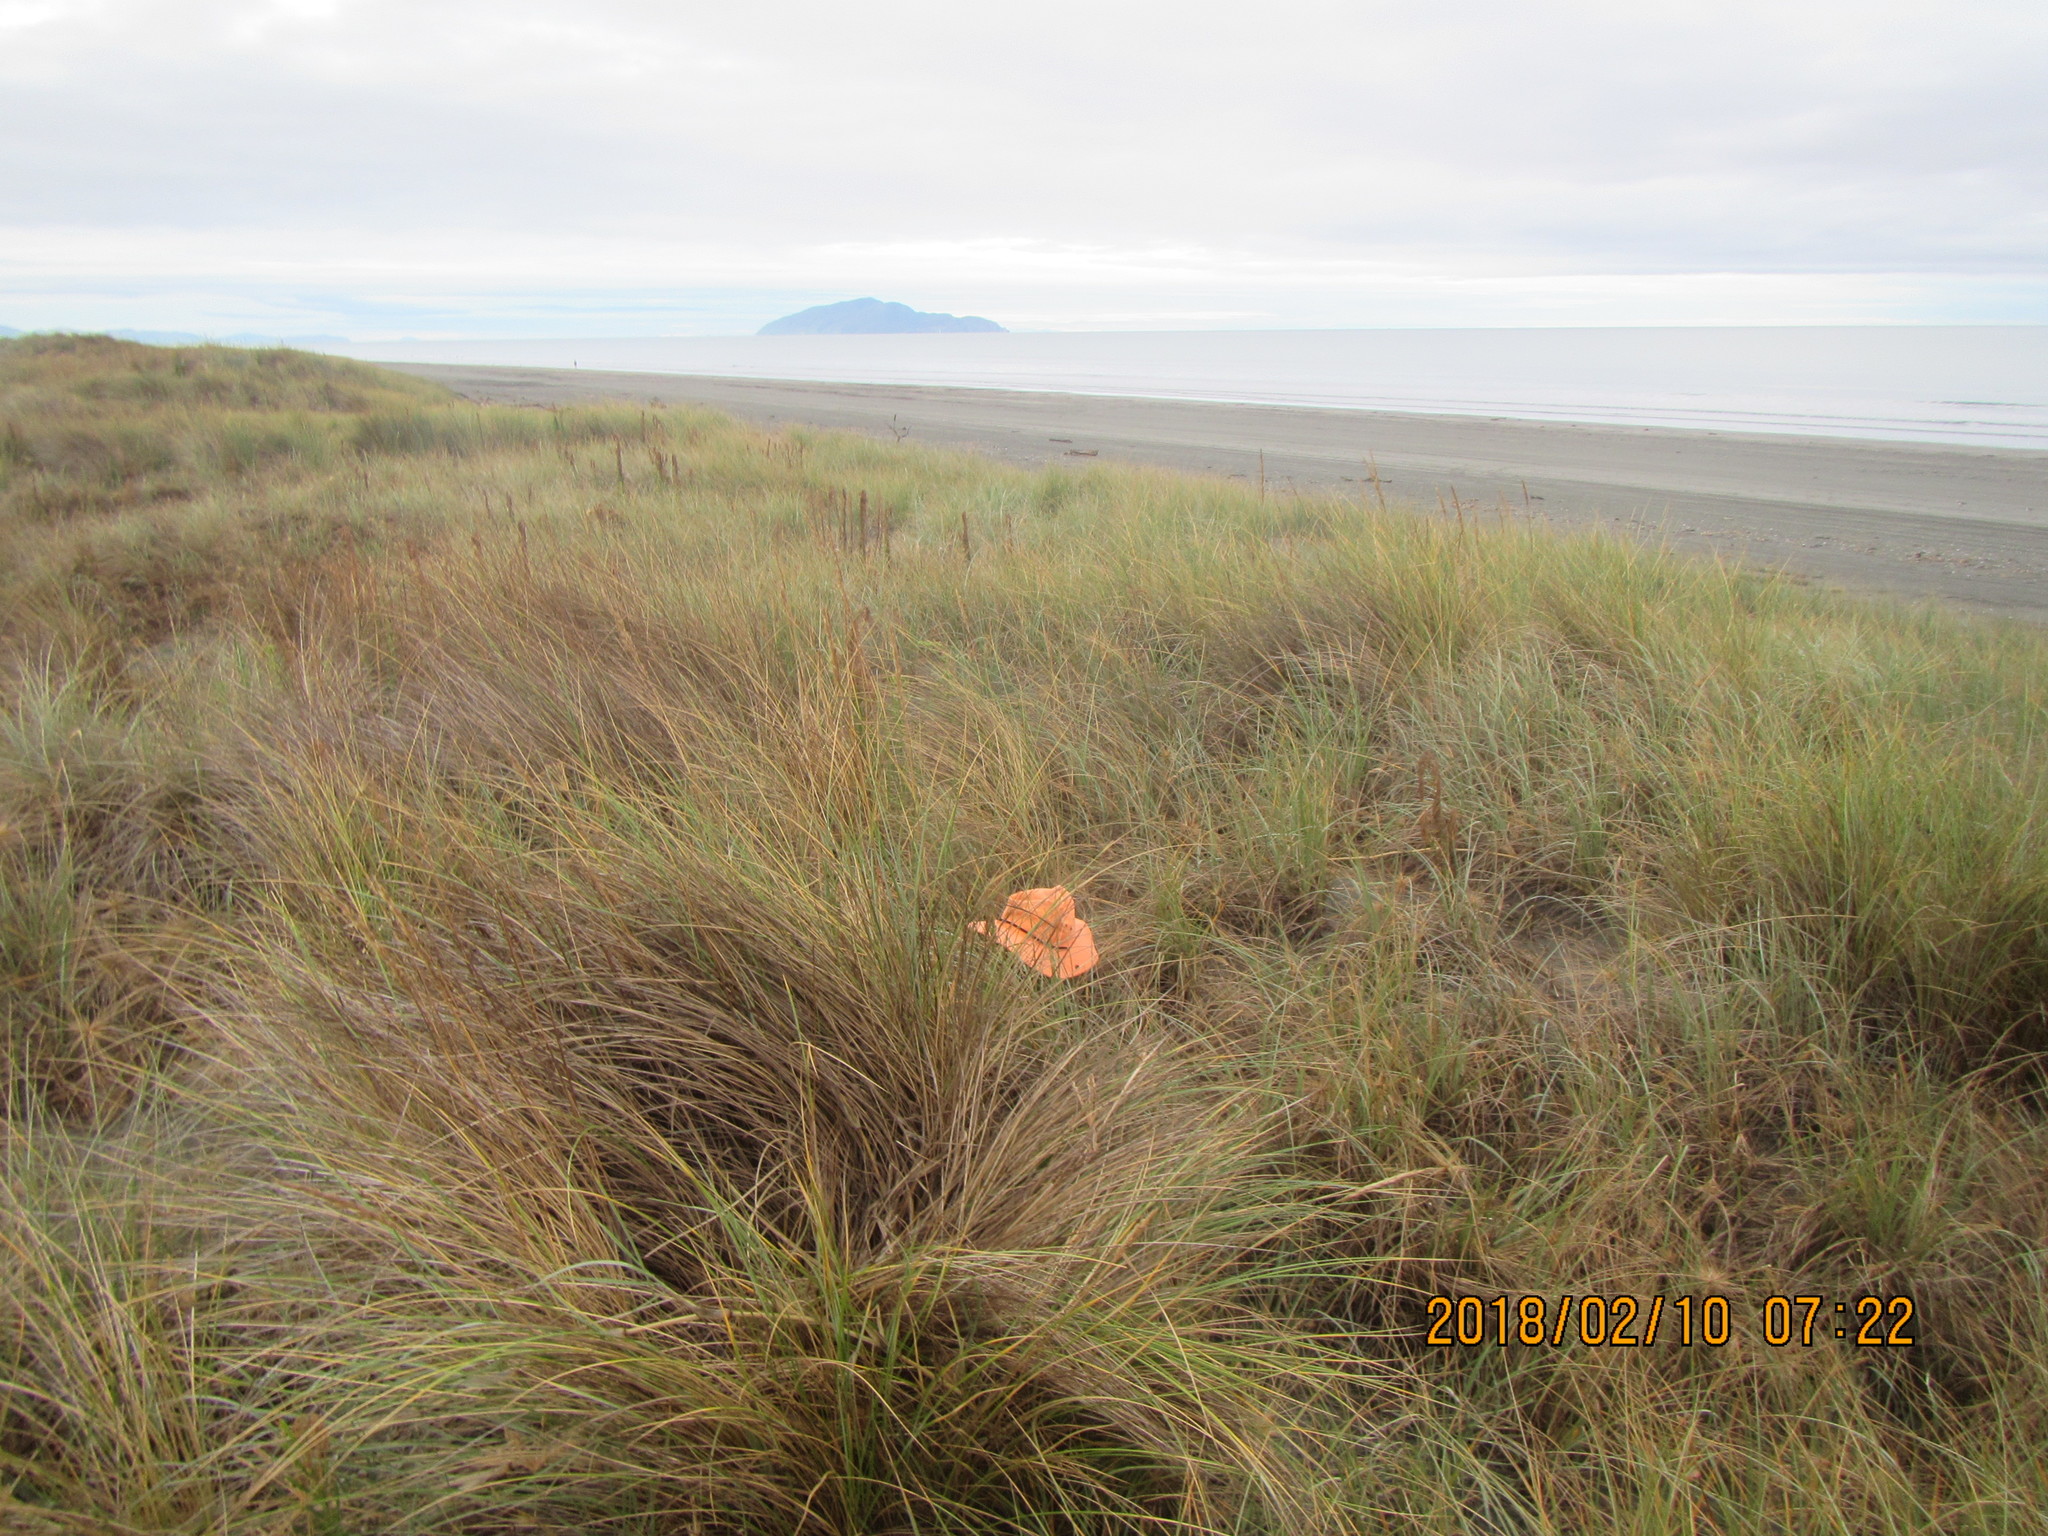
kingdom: Animalia
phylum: Arthropoda
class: Arachnida
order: Araneae
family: Theridiidae
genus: Steatoda
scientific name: Steatoda lepida
